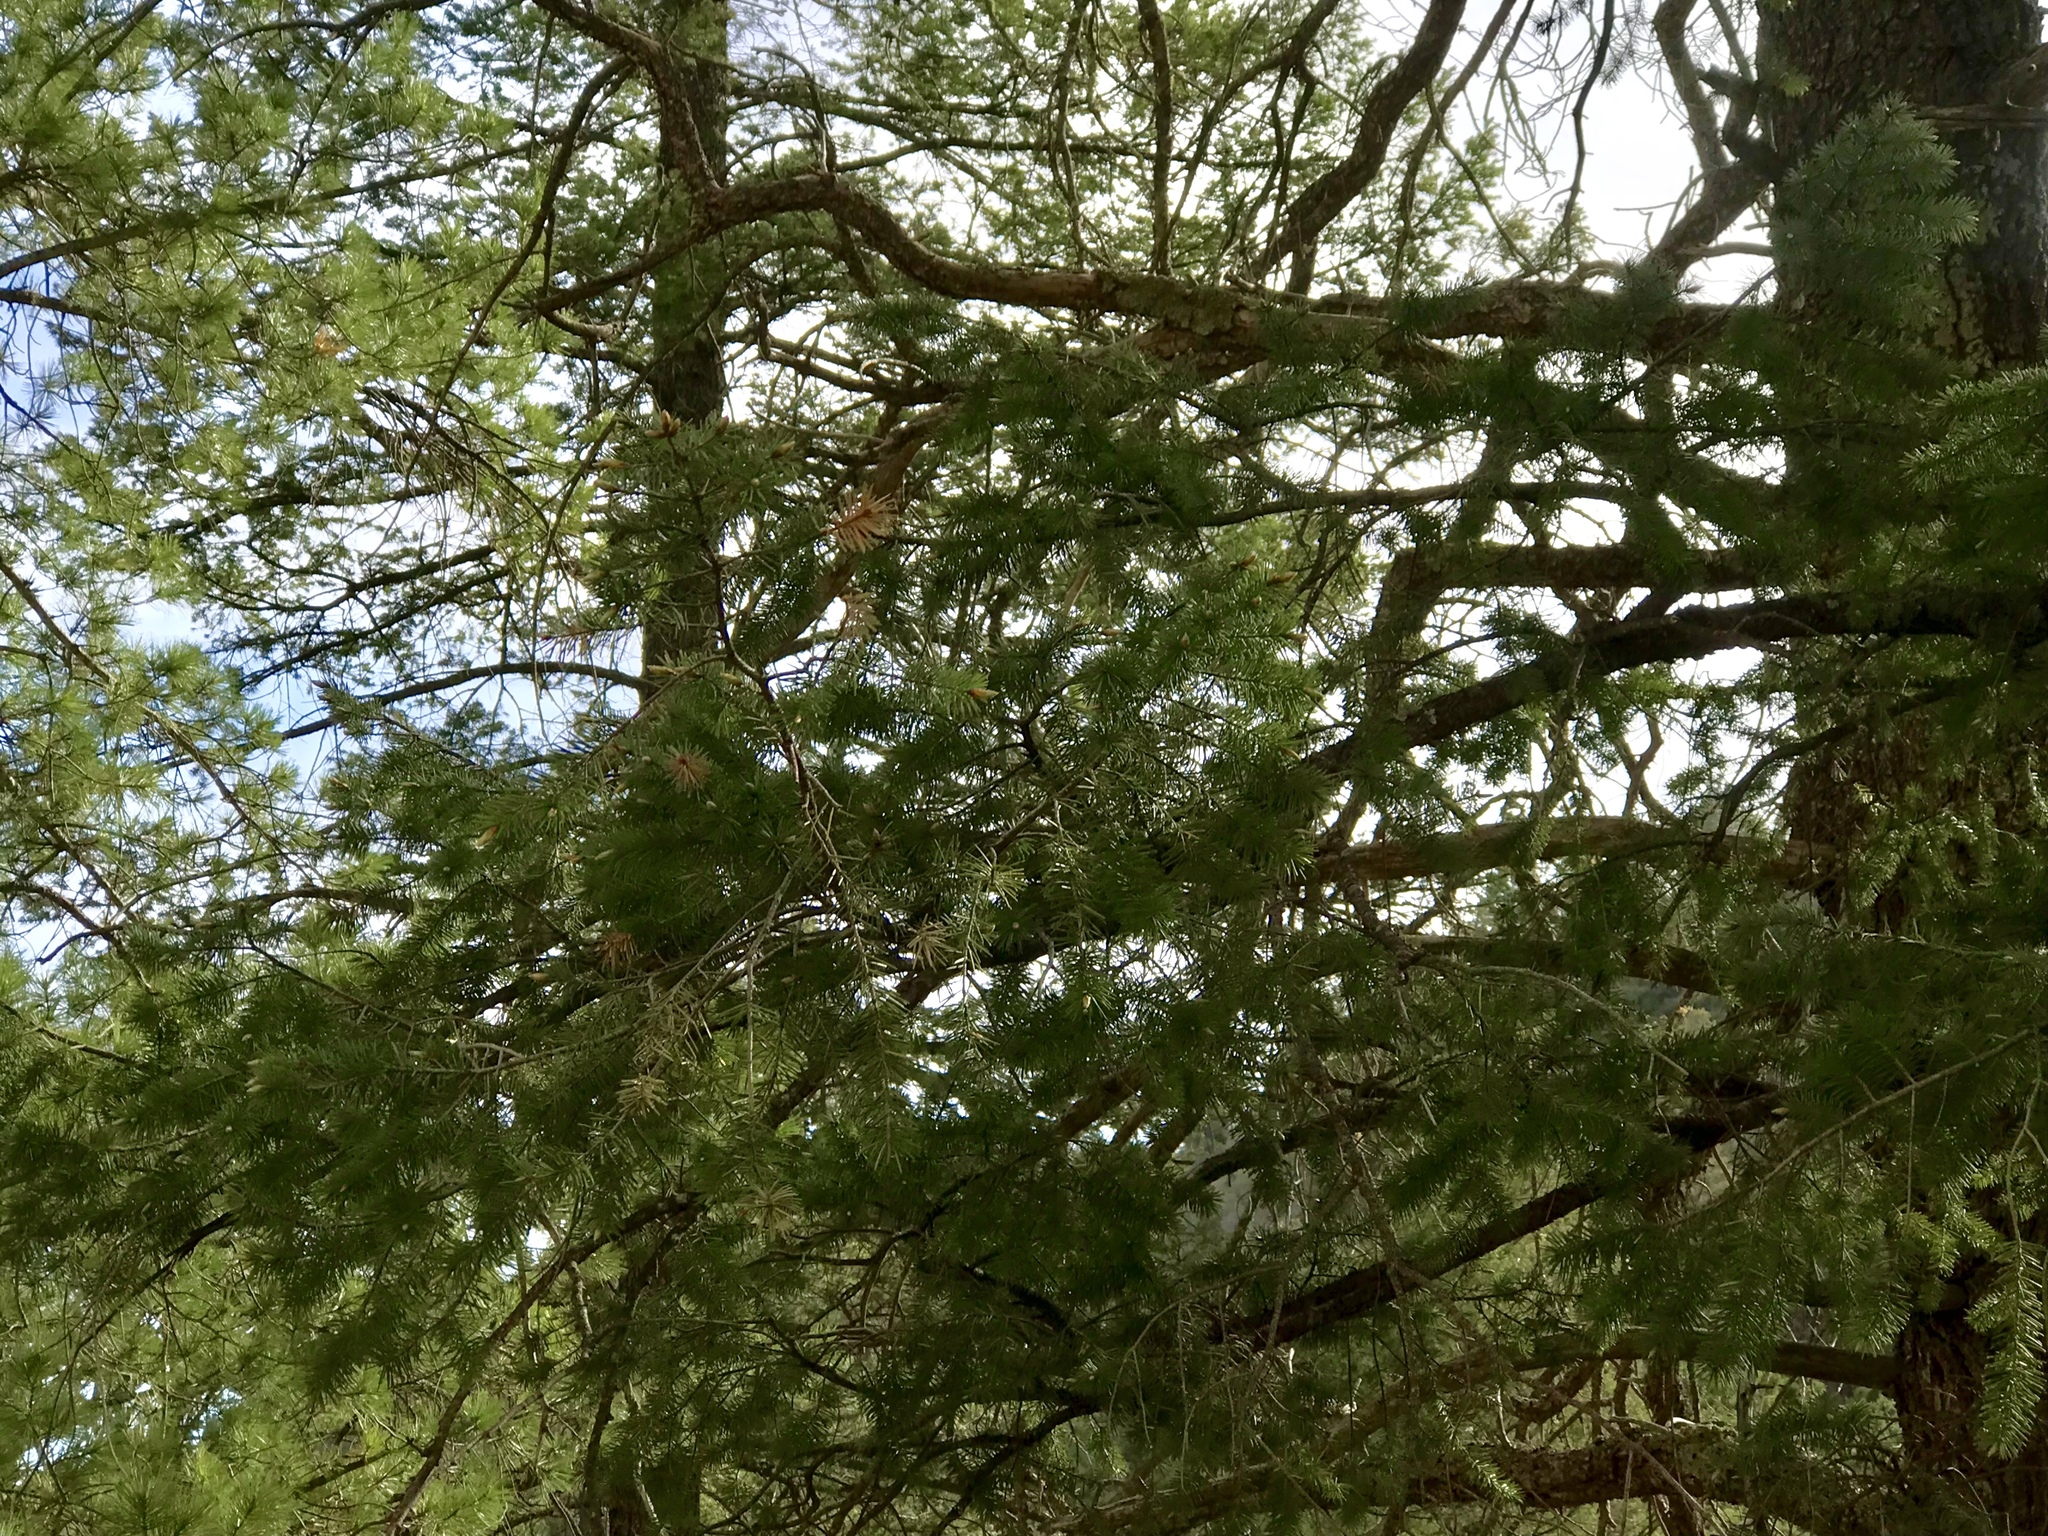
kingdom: Plantae
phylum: Tracheophyta
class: Pinopsida
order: Pinales
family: Pinaceae
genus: Pseudotsuga
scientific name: Pseudotsuga menziesii
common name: Douglas fir
